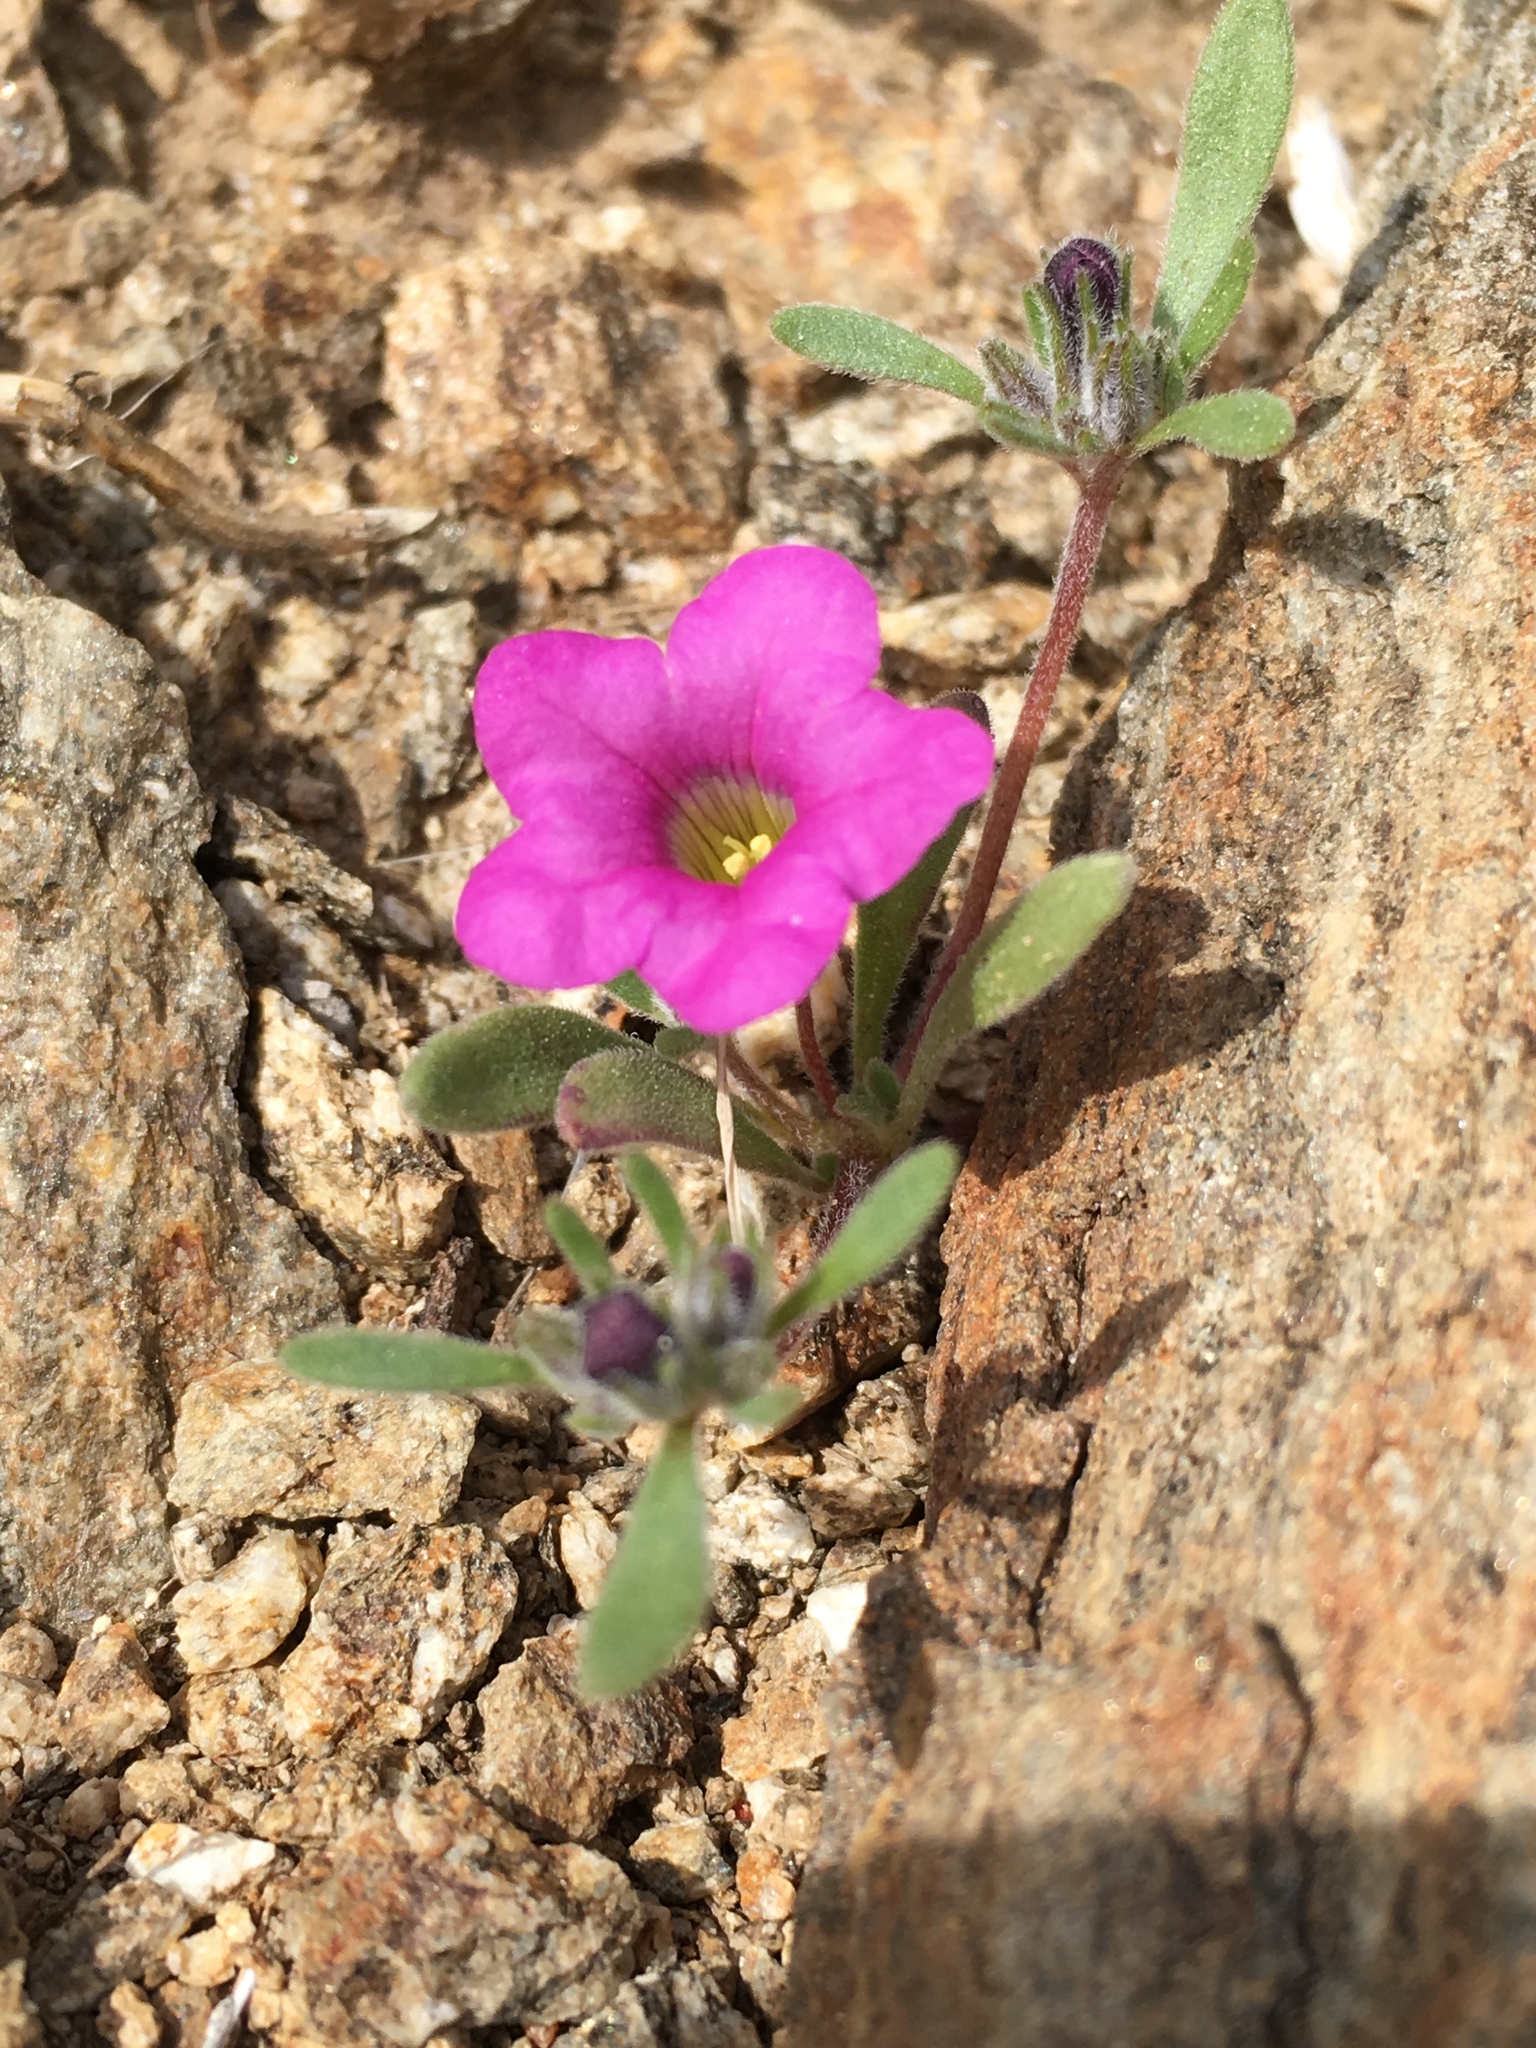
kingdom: Plantae
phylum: Tracheophyta
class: Magnoliopsida
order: Boraginales
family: Namaceae
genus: Nama
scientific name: Nama demissa
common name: Leafy nama
